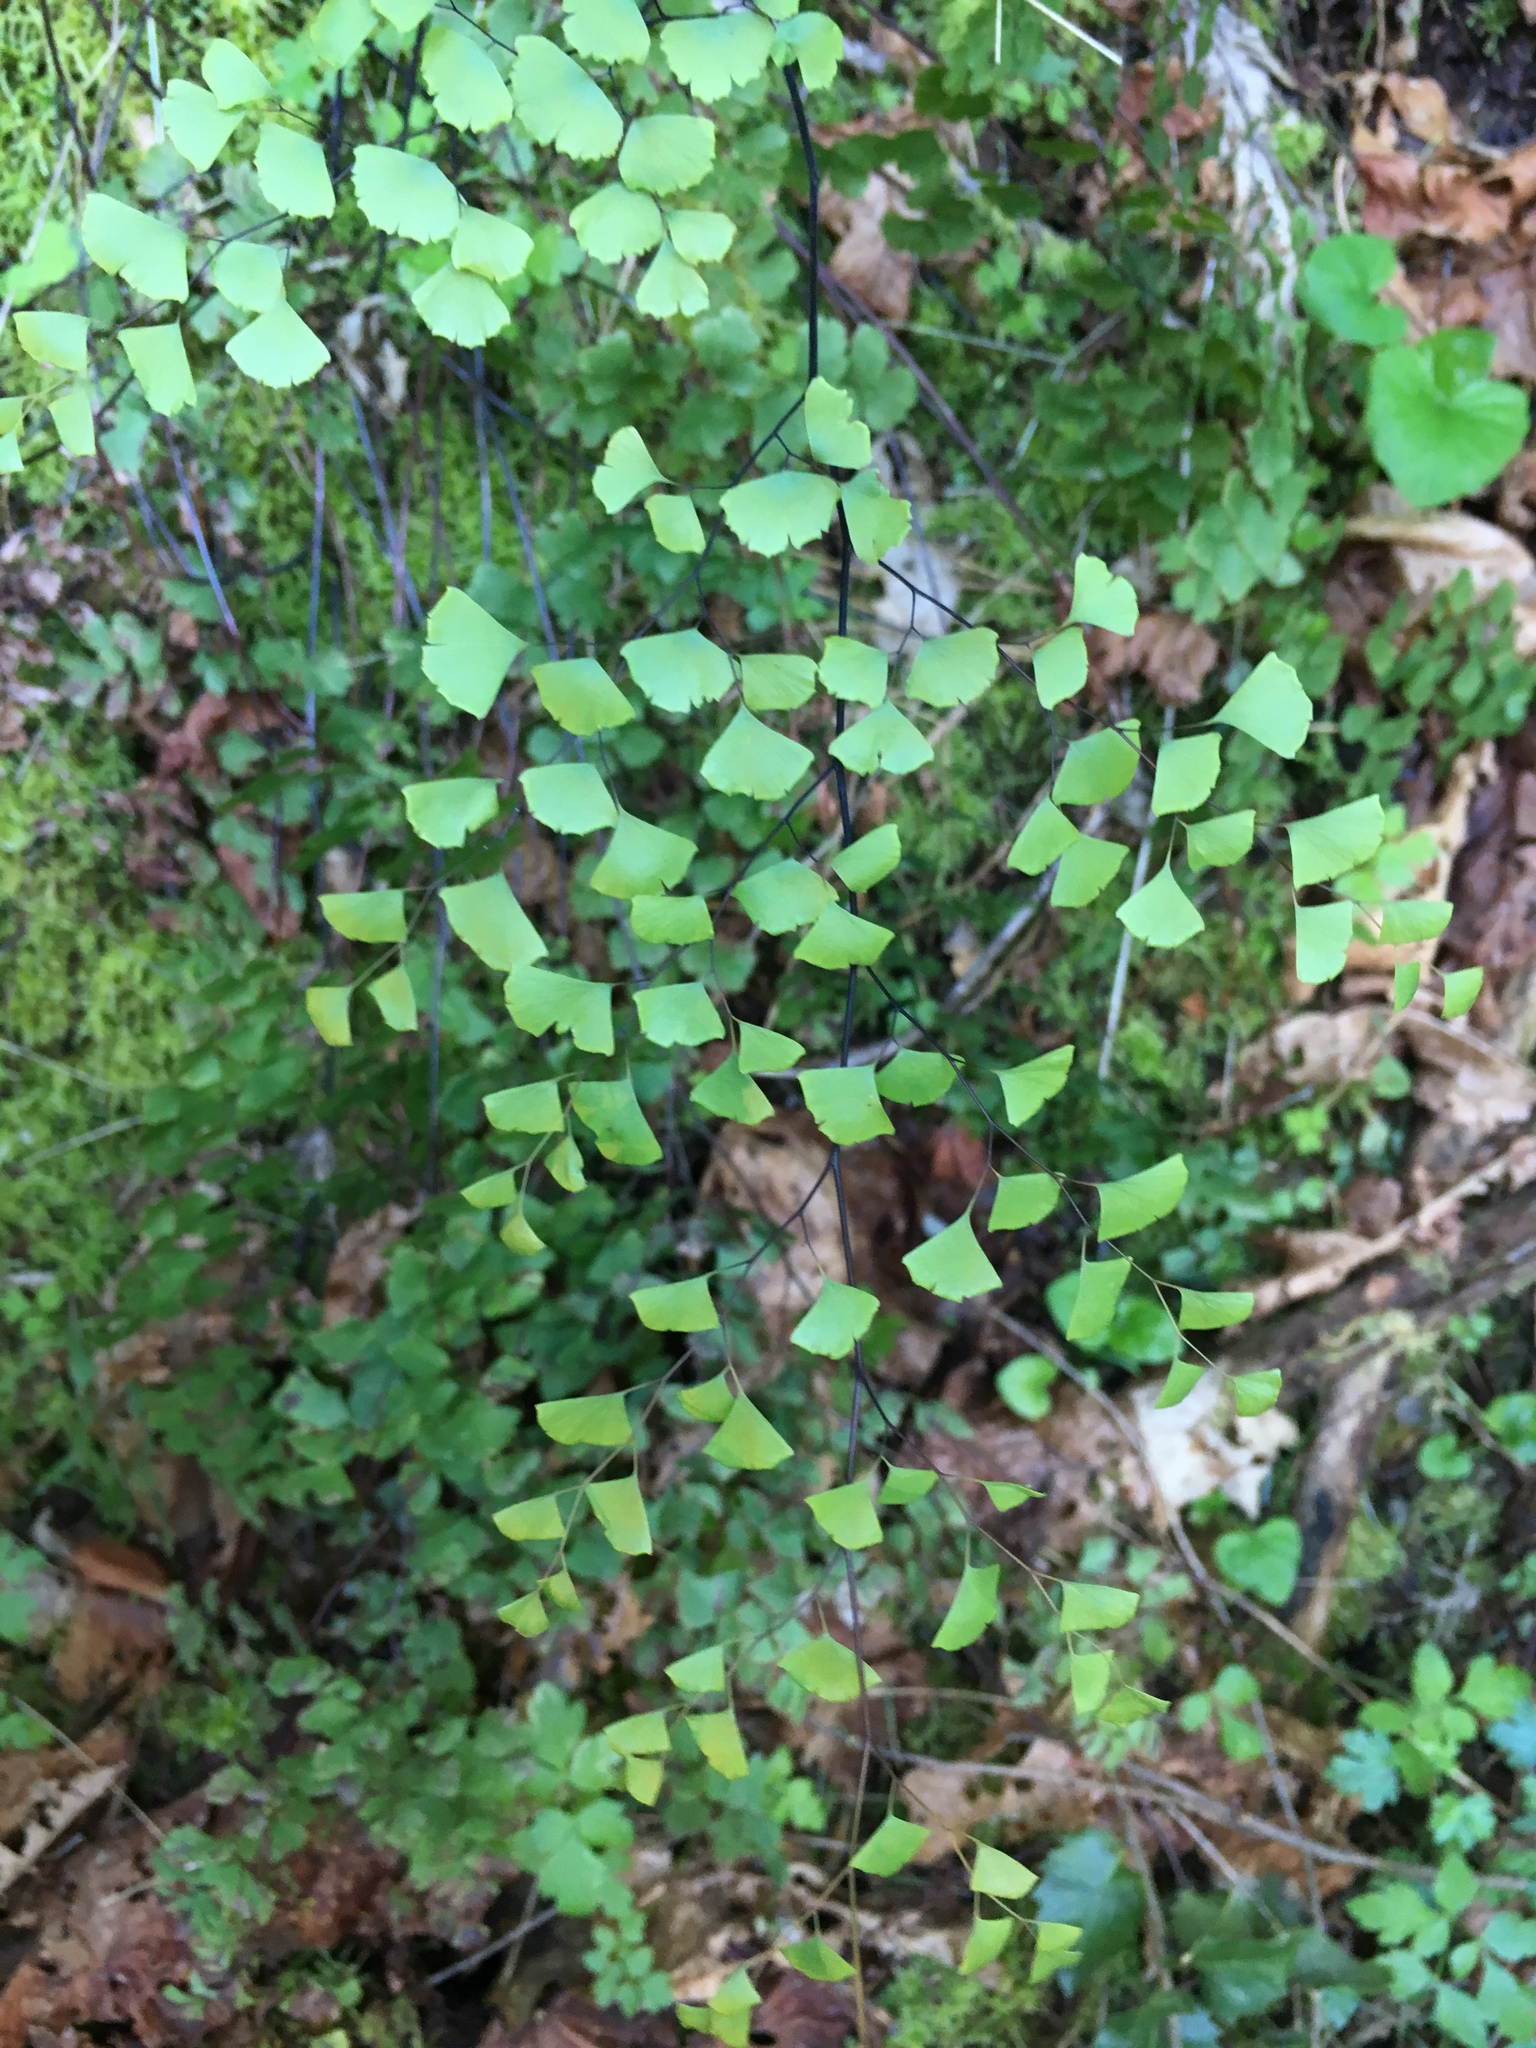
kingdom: Plantae
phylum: Tracheophyta
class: Polypodiopsida
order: Polypodiales
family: Pteridaceae
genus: Adiantum
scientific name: Adiantum shastense
